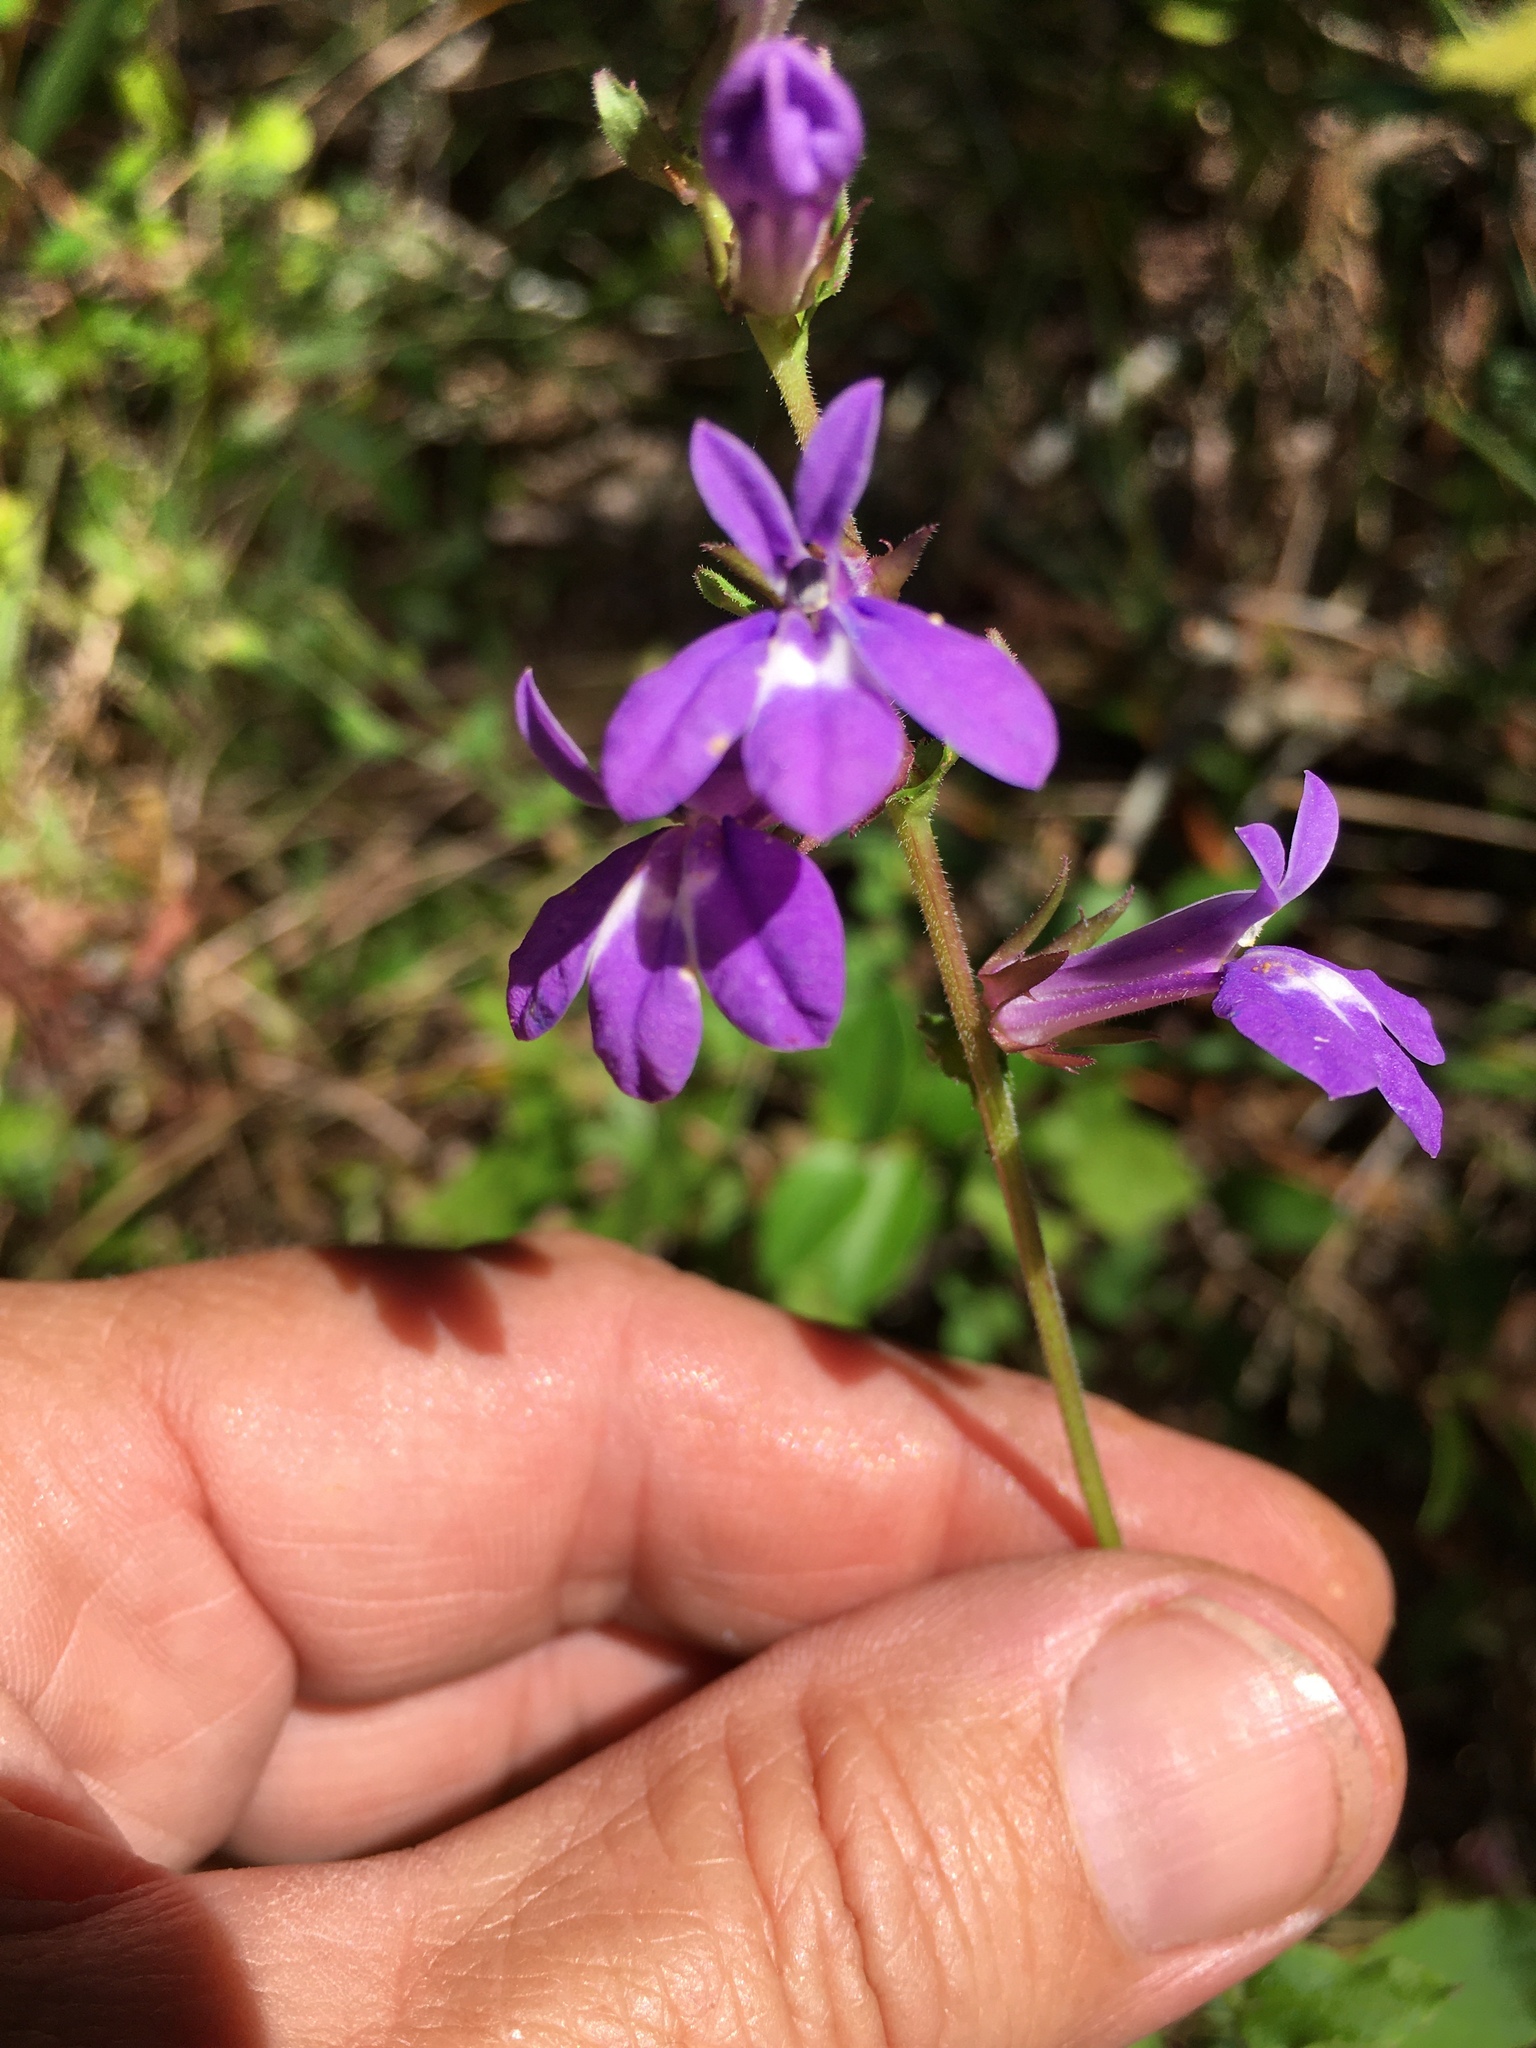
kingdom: Plantae
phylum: Tracheophyta
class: Magnoliopsida
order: Asterales
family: Campanulaceae
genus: Lobelia
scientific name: Lobelia puberula
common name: Purple dewdrop
